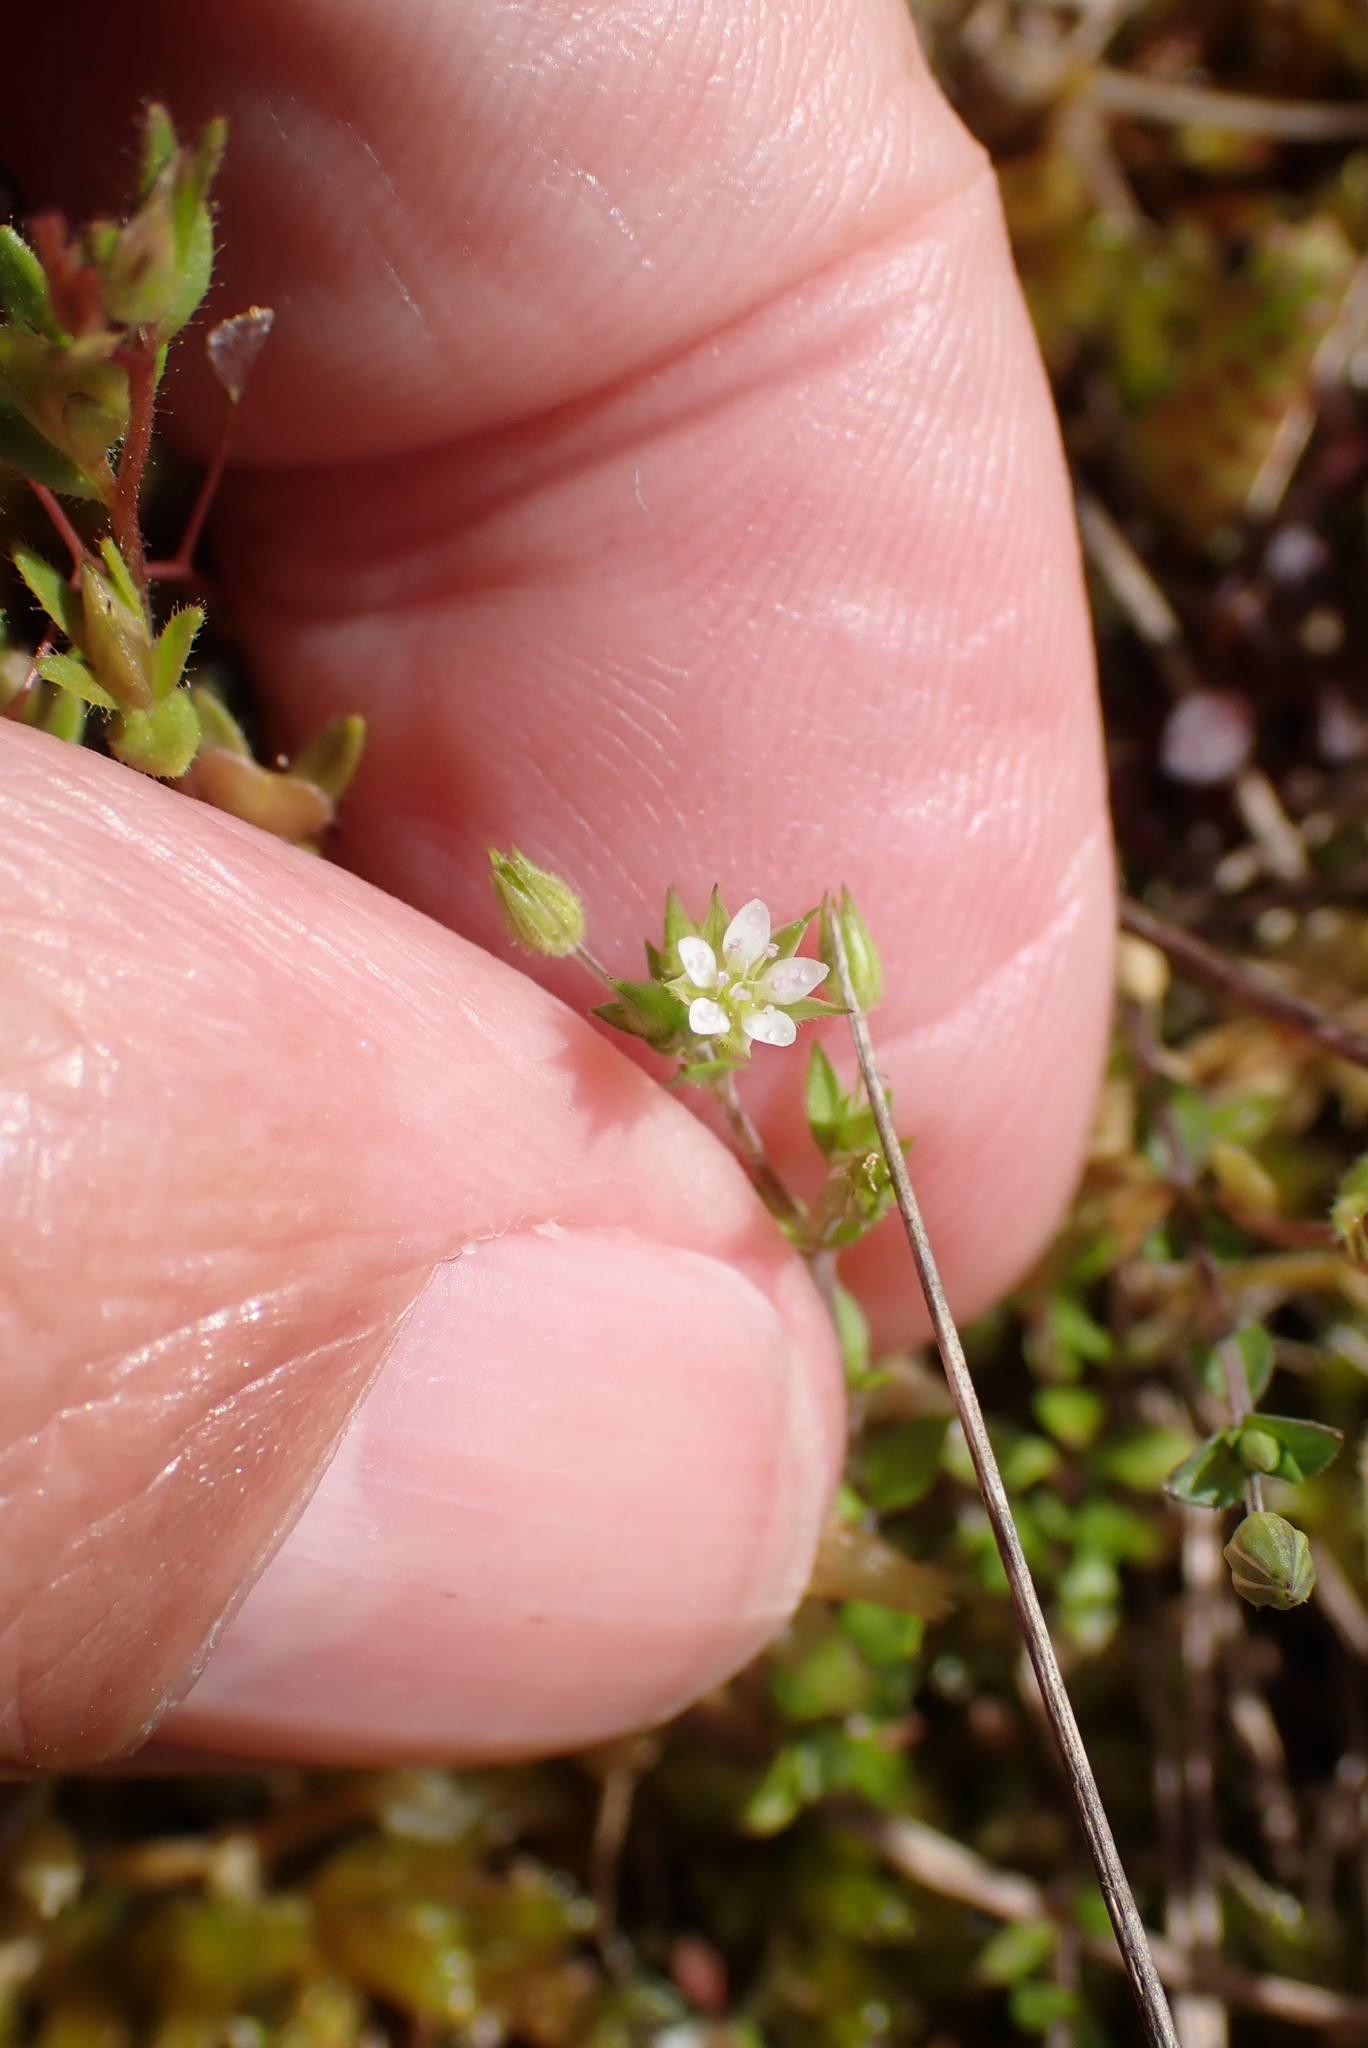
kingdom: Plantae
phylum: Tracheophyta
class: Magnoliopsida
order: Caryophyllales
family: Caryophyllaceae
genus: Arenaria
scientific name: Arenaria serpyllifolia
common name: Thyme-leaved sandwort
